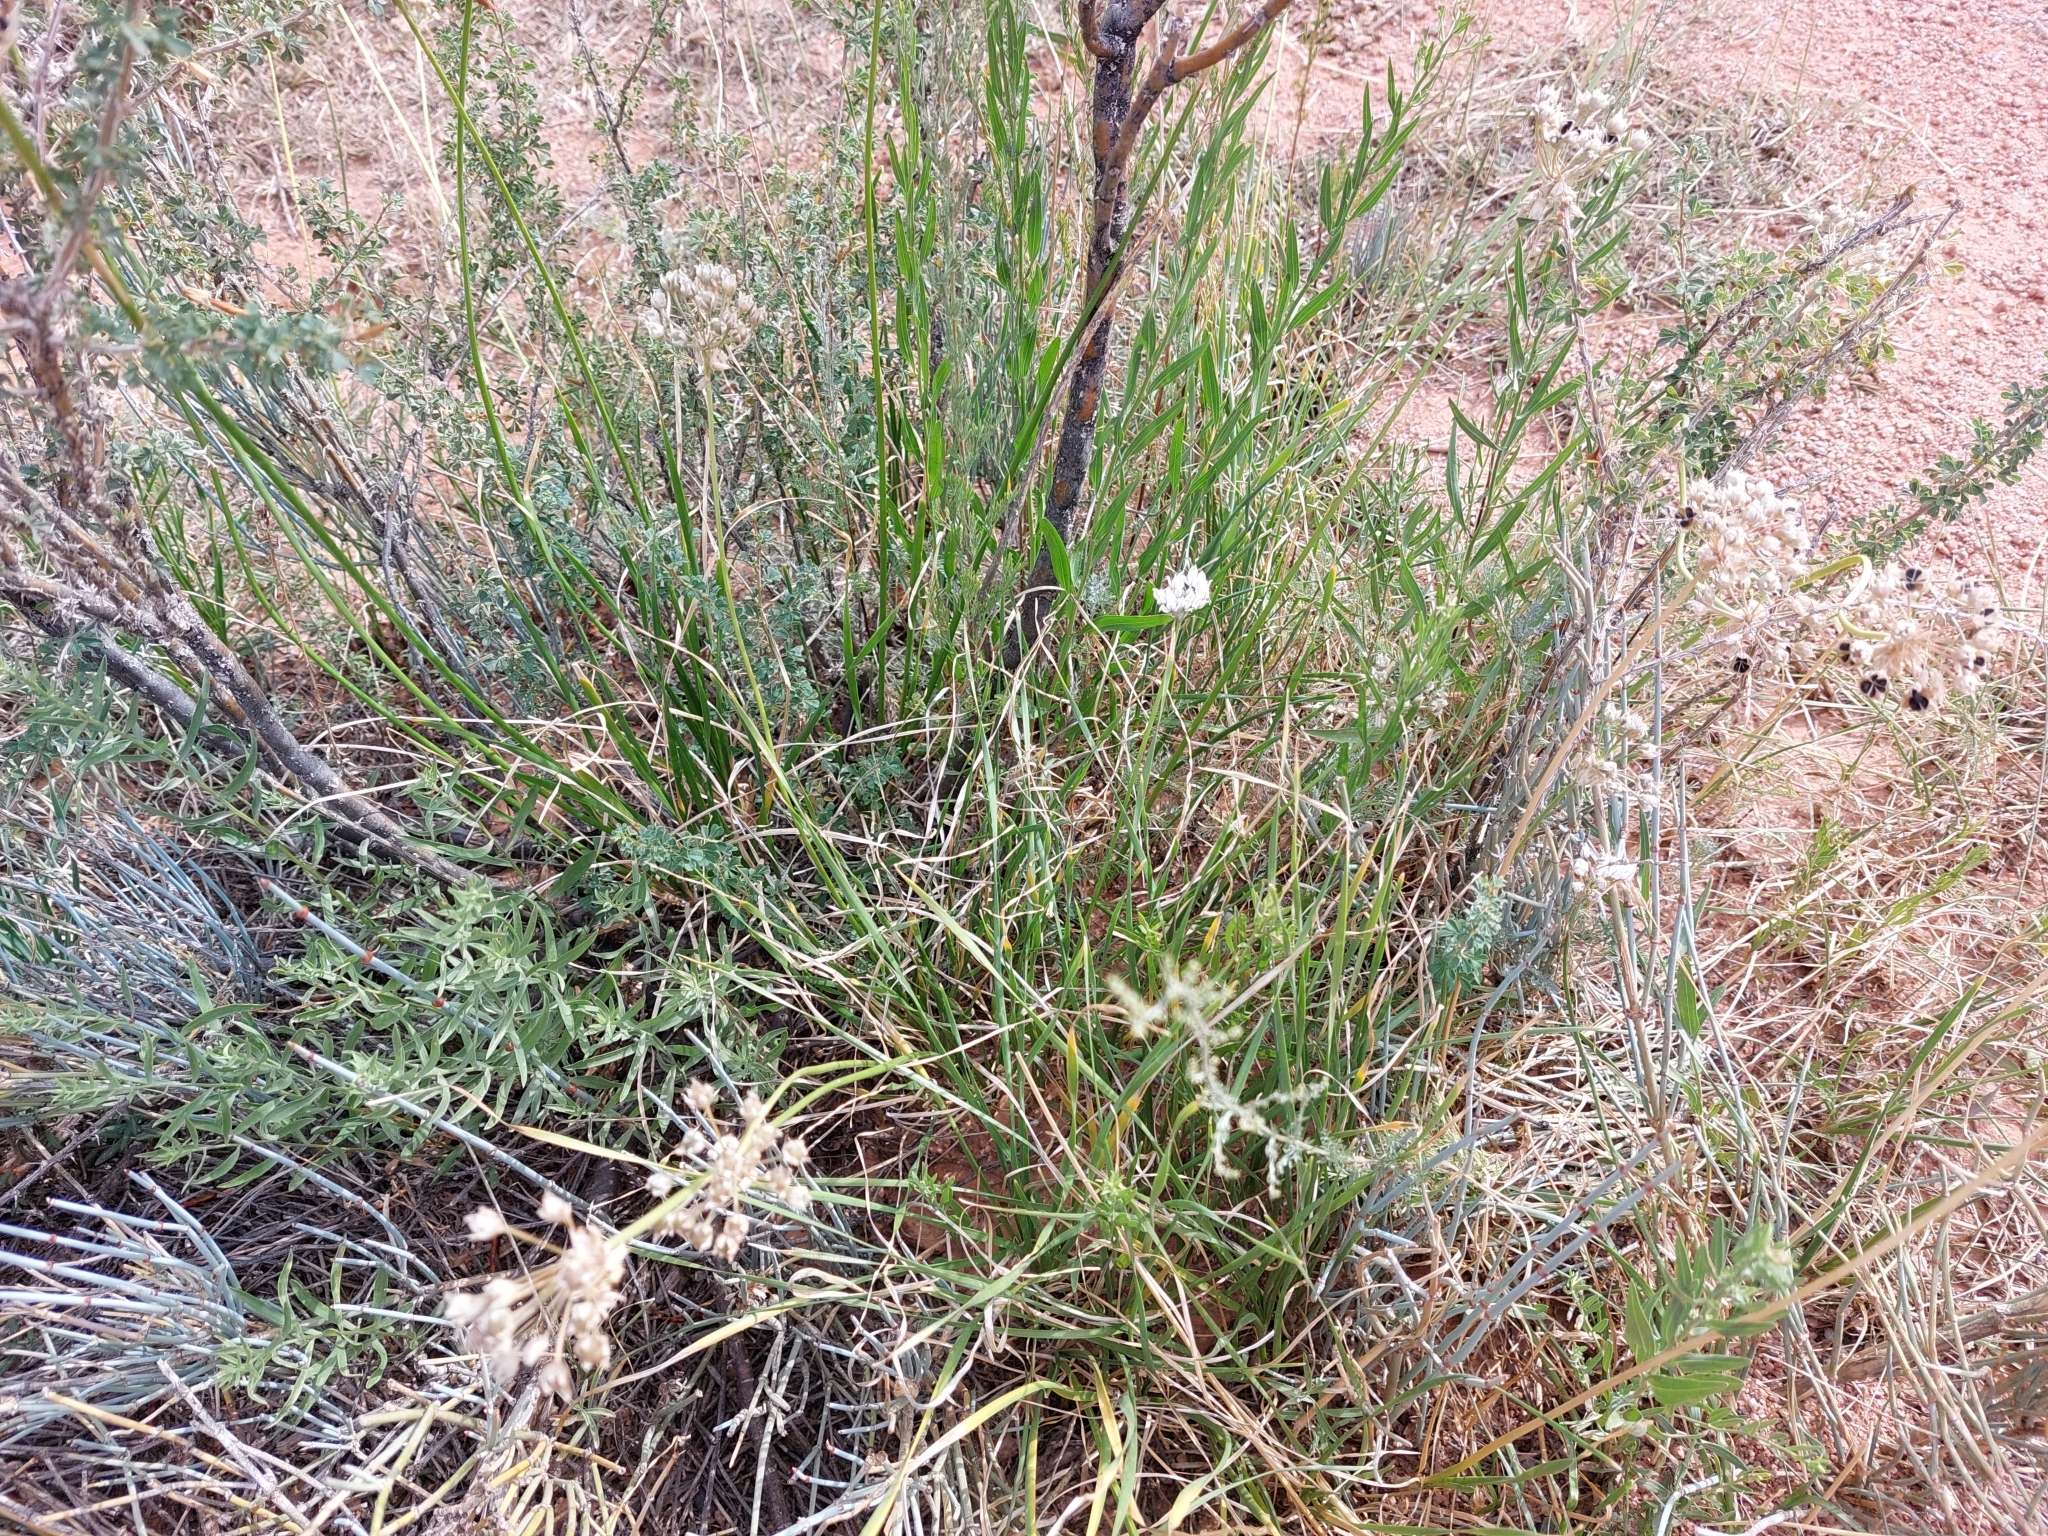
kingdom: Plantae
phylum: Tracheophyta
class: Liliopsida
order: Asparagales
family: Amaryllidaceae
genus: Allium
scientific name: Allium oreoprasum
